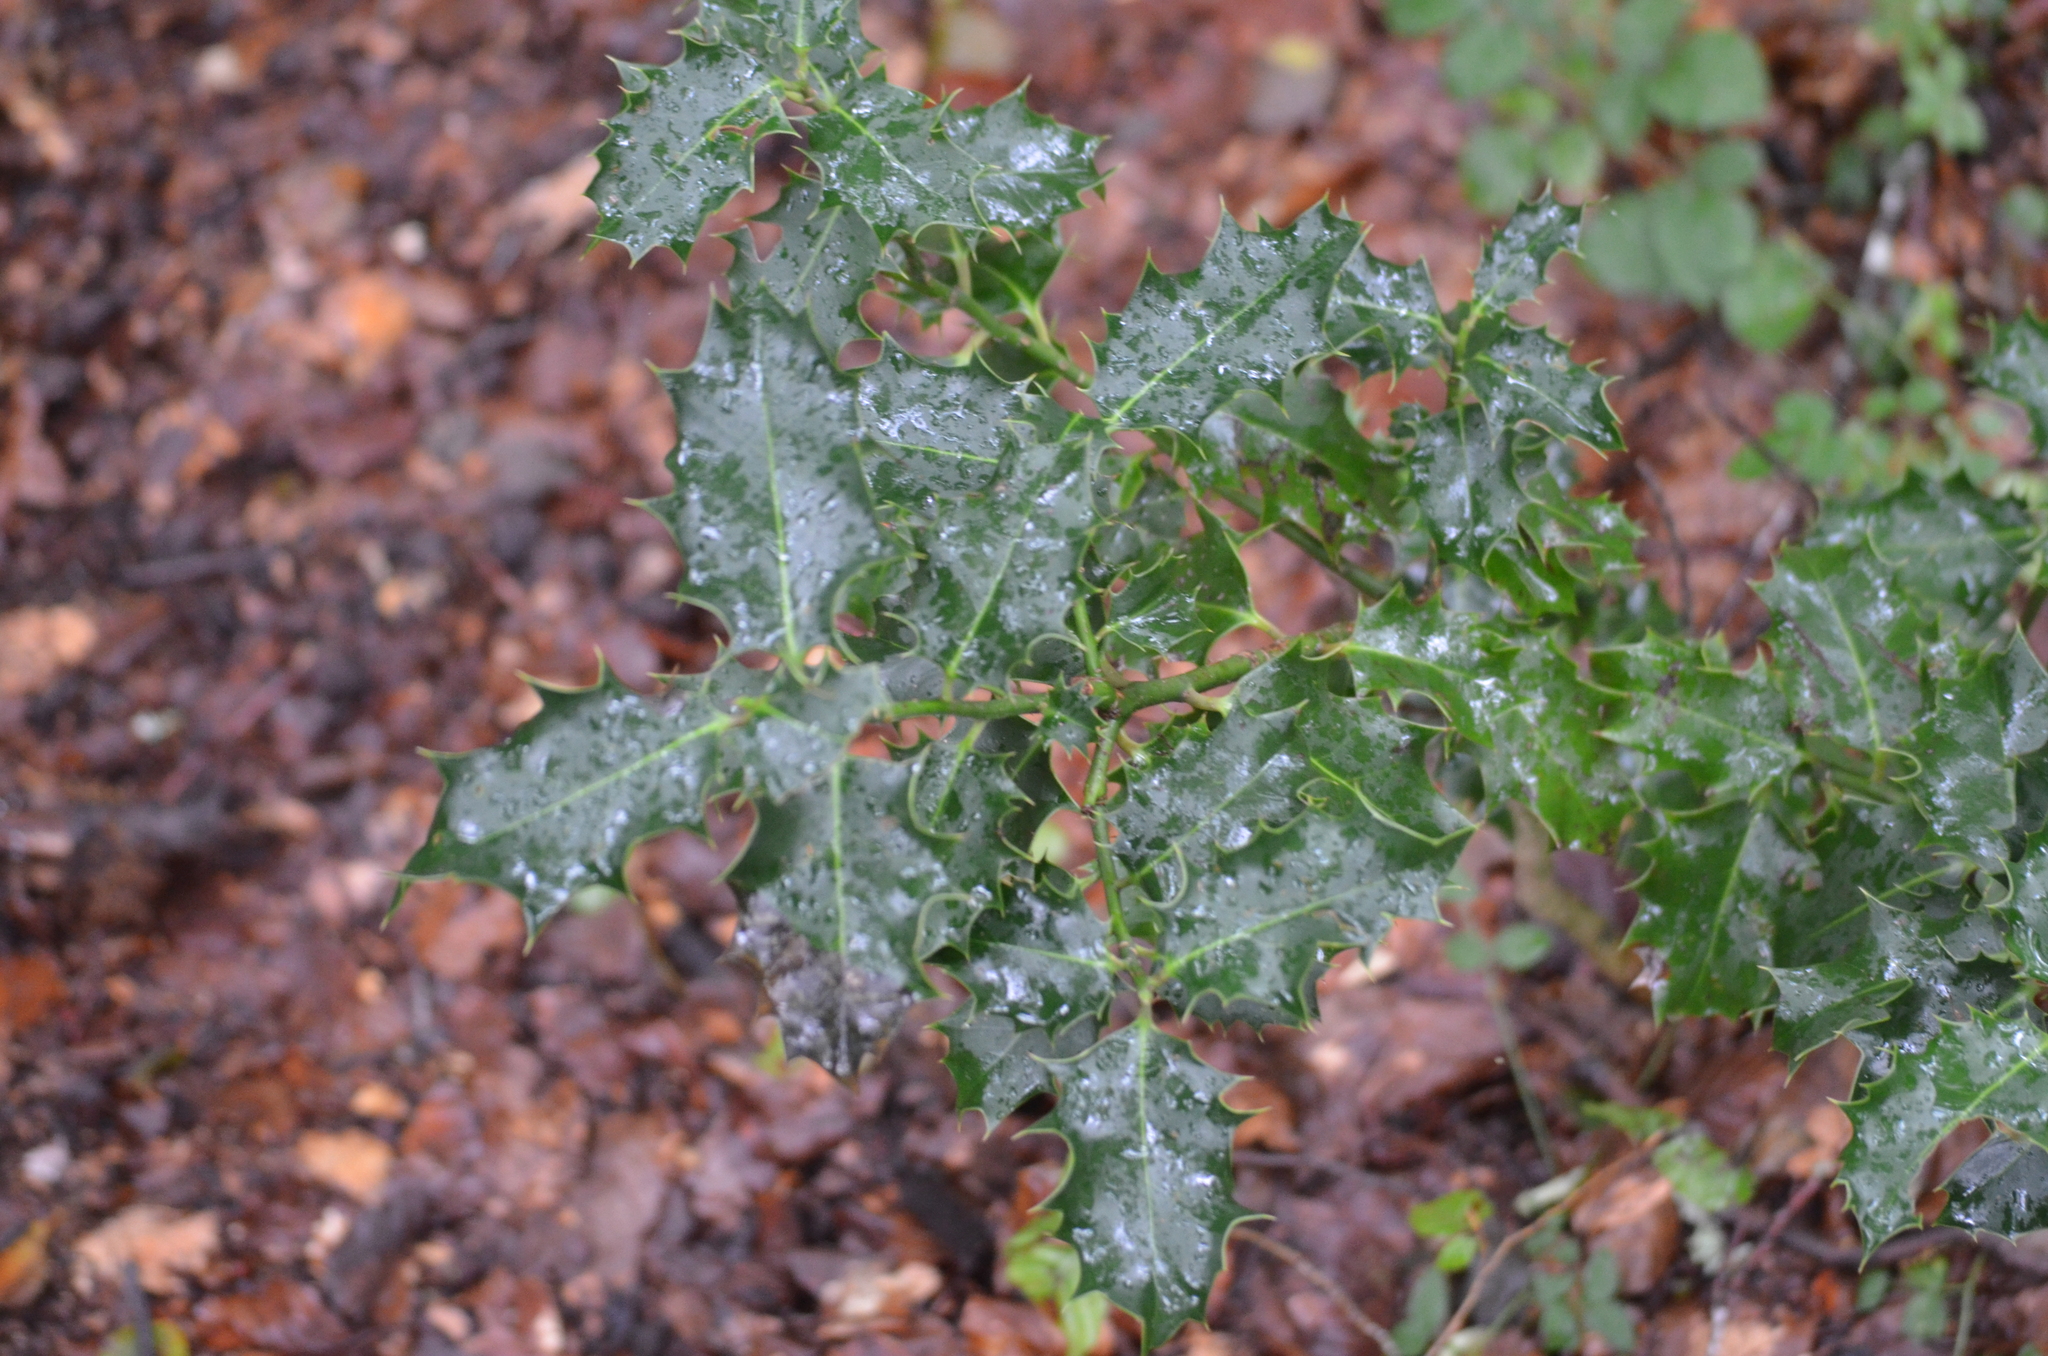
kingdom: Plantae
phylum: Tracheophyta
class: Magnoliopsida
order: Aquifoliales
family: Aquifoliaceae
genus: Ilex
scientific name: Ilex aquifolium
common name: English holly
